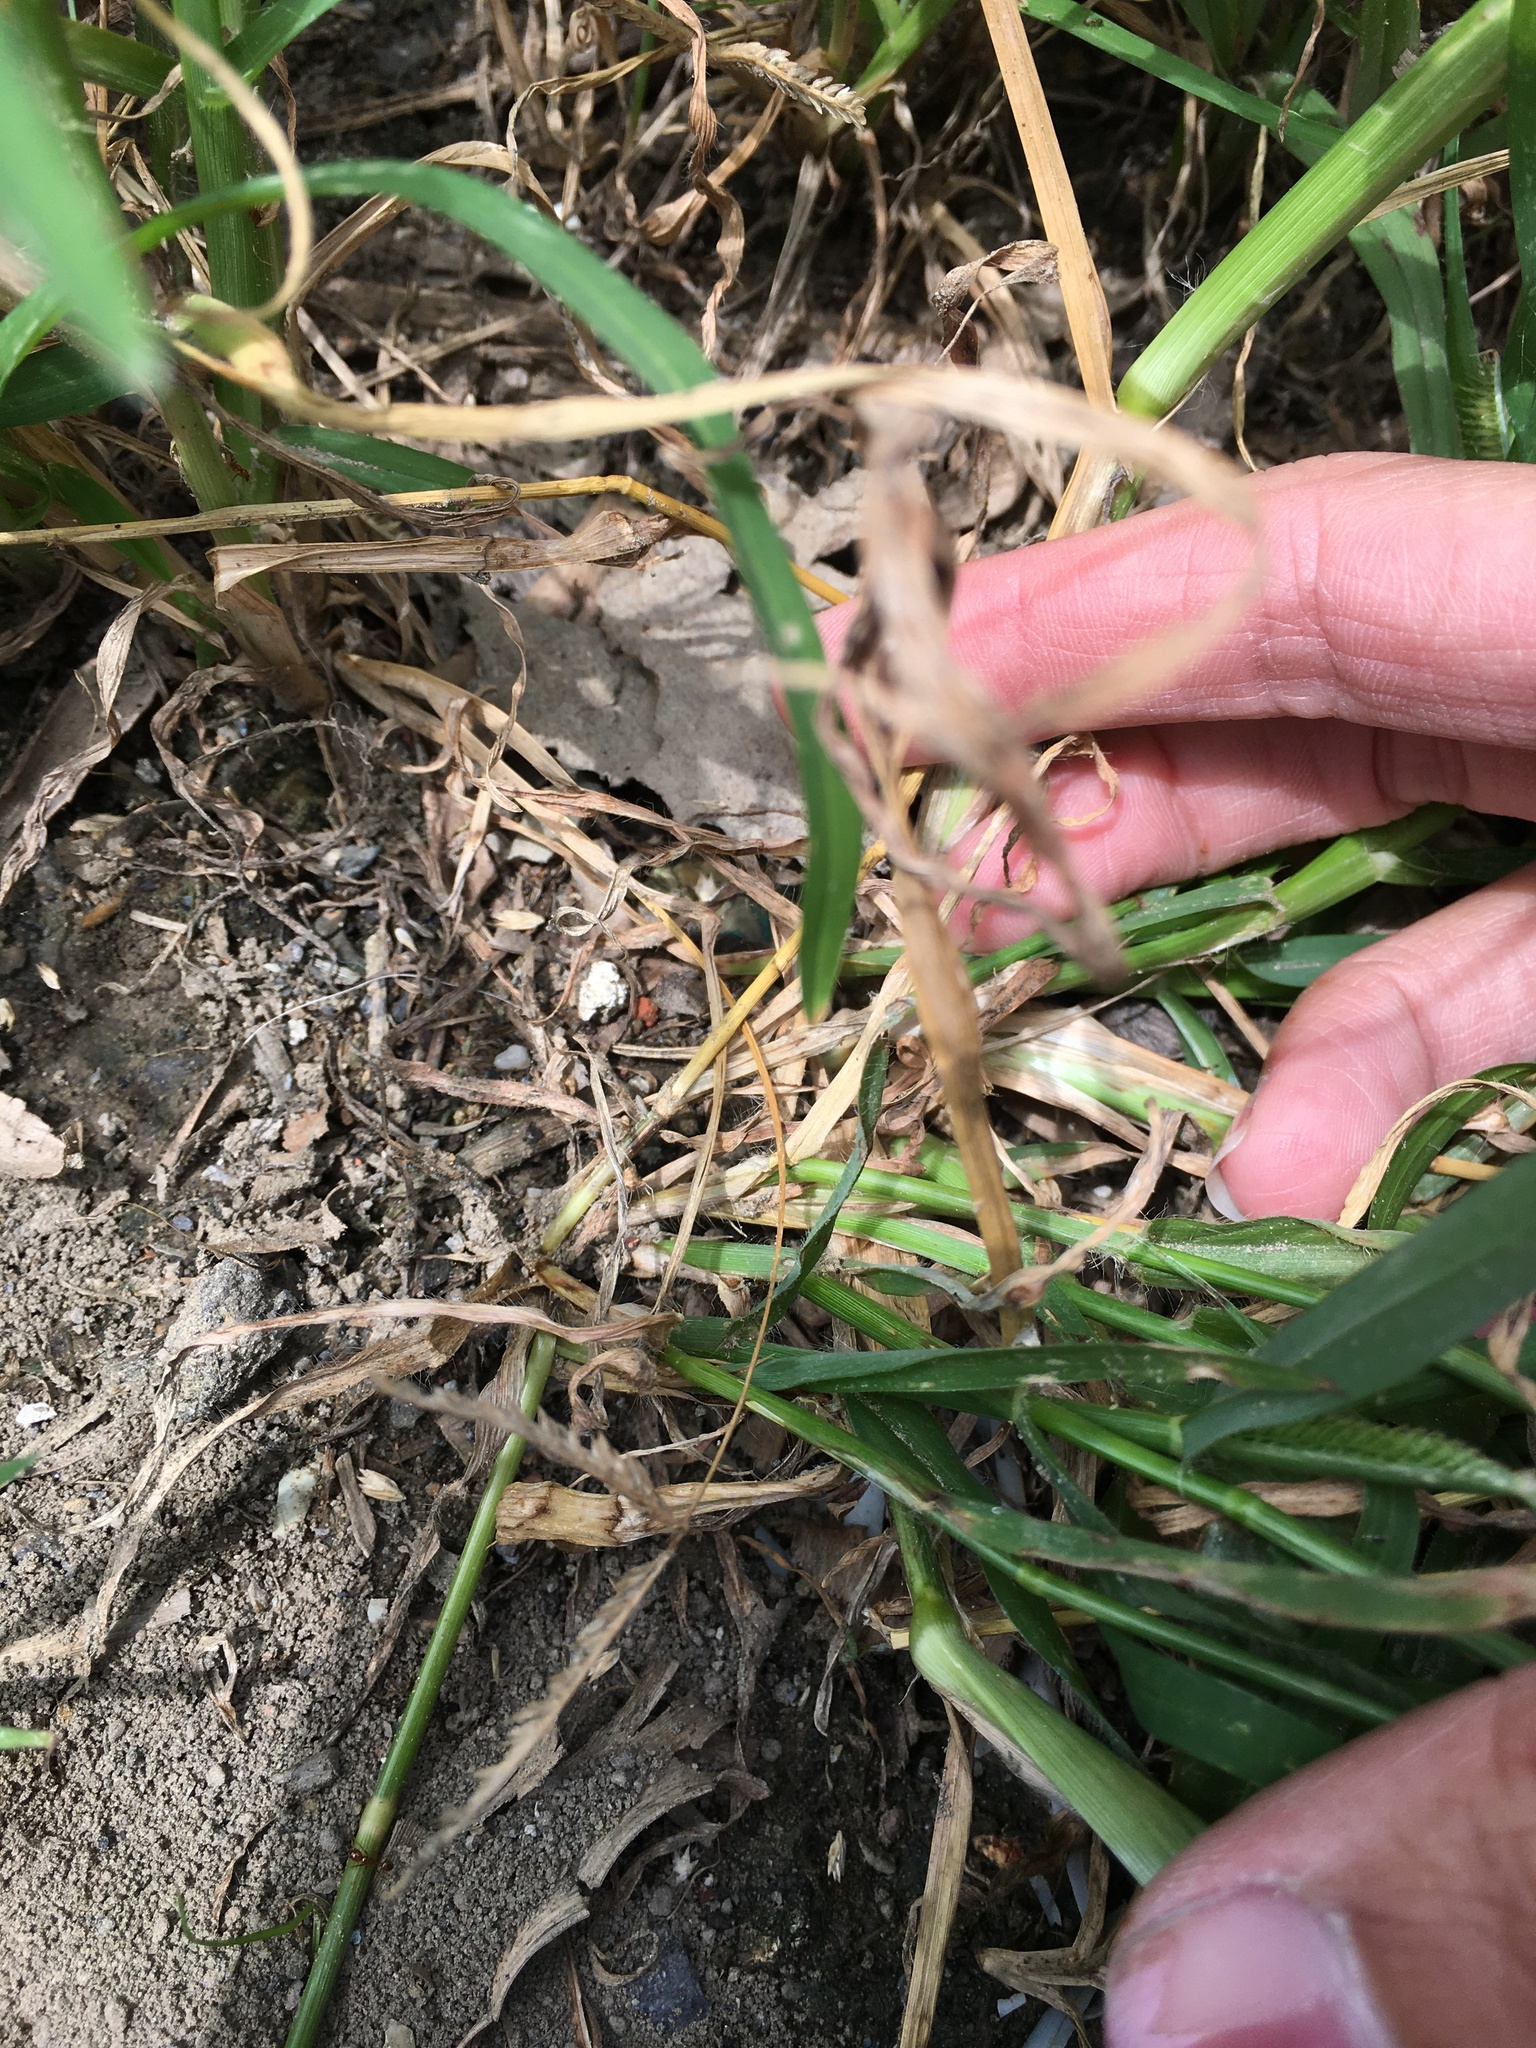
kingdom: Plantae
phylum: Tracheophyta
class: Liliopsida
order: Poales
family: Poaceae
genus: Dactyloctenium
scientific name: Dactyloctenium aegyptium
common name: Egyptian grass
